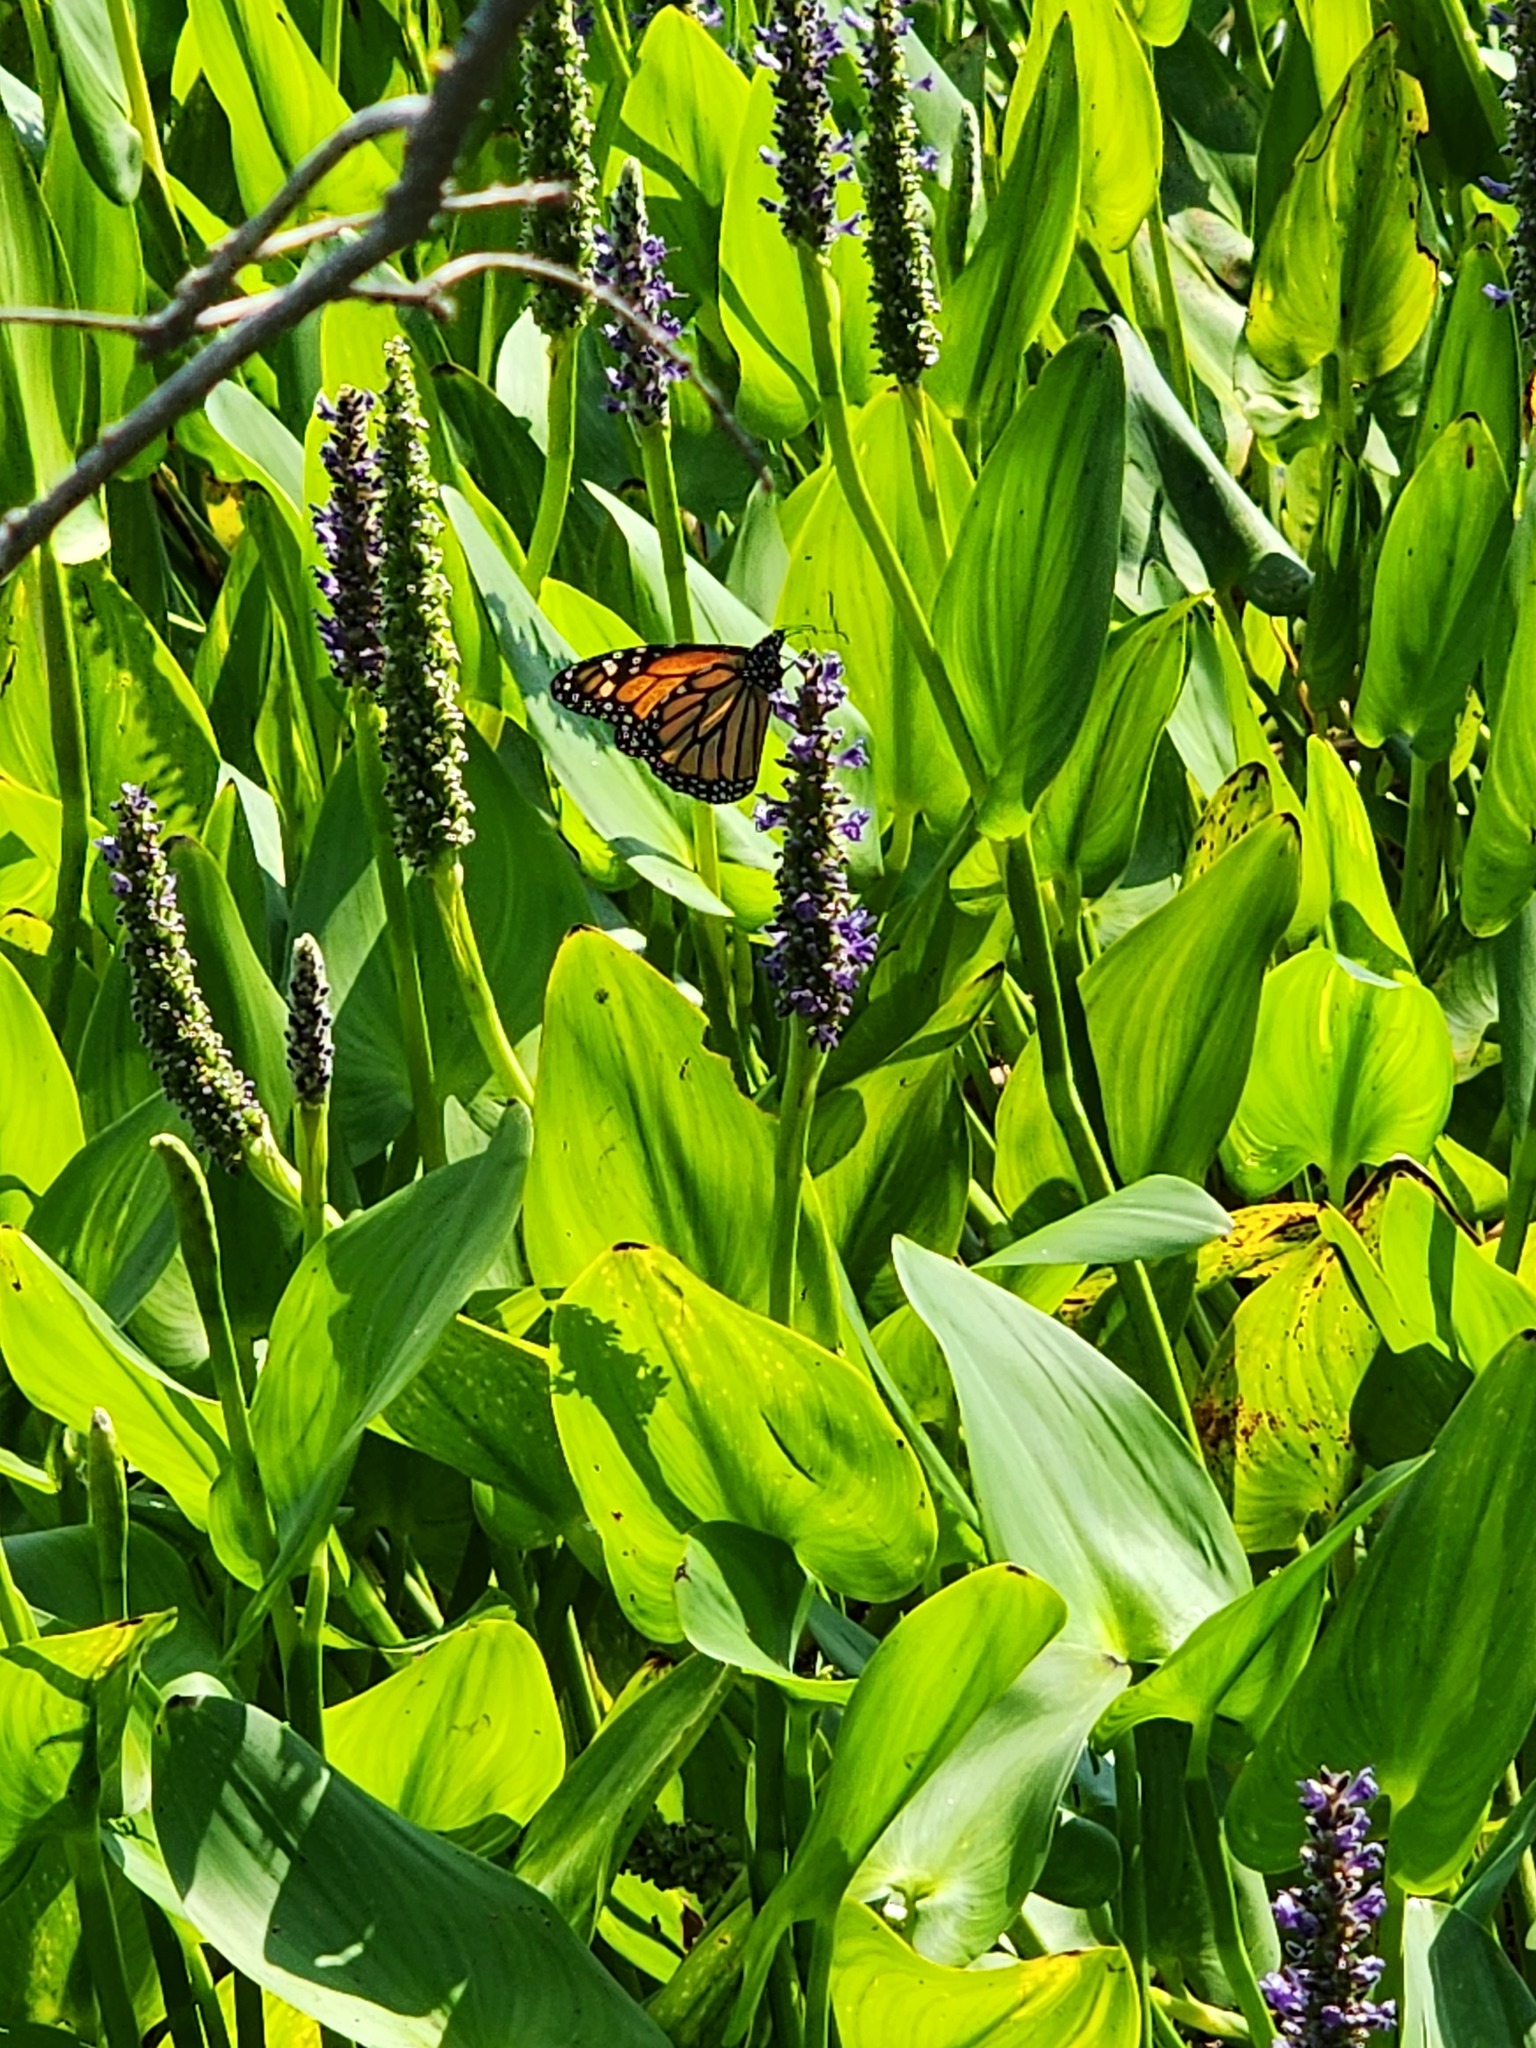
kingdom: Animalia
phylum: Arthropoda
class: Insecta
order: Lepidoptera
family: Nymphalidae
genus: Danaus
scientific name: Danaus plexippus
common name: Monarch
